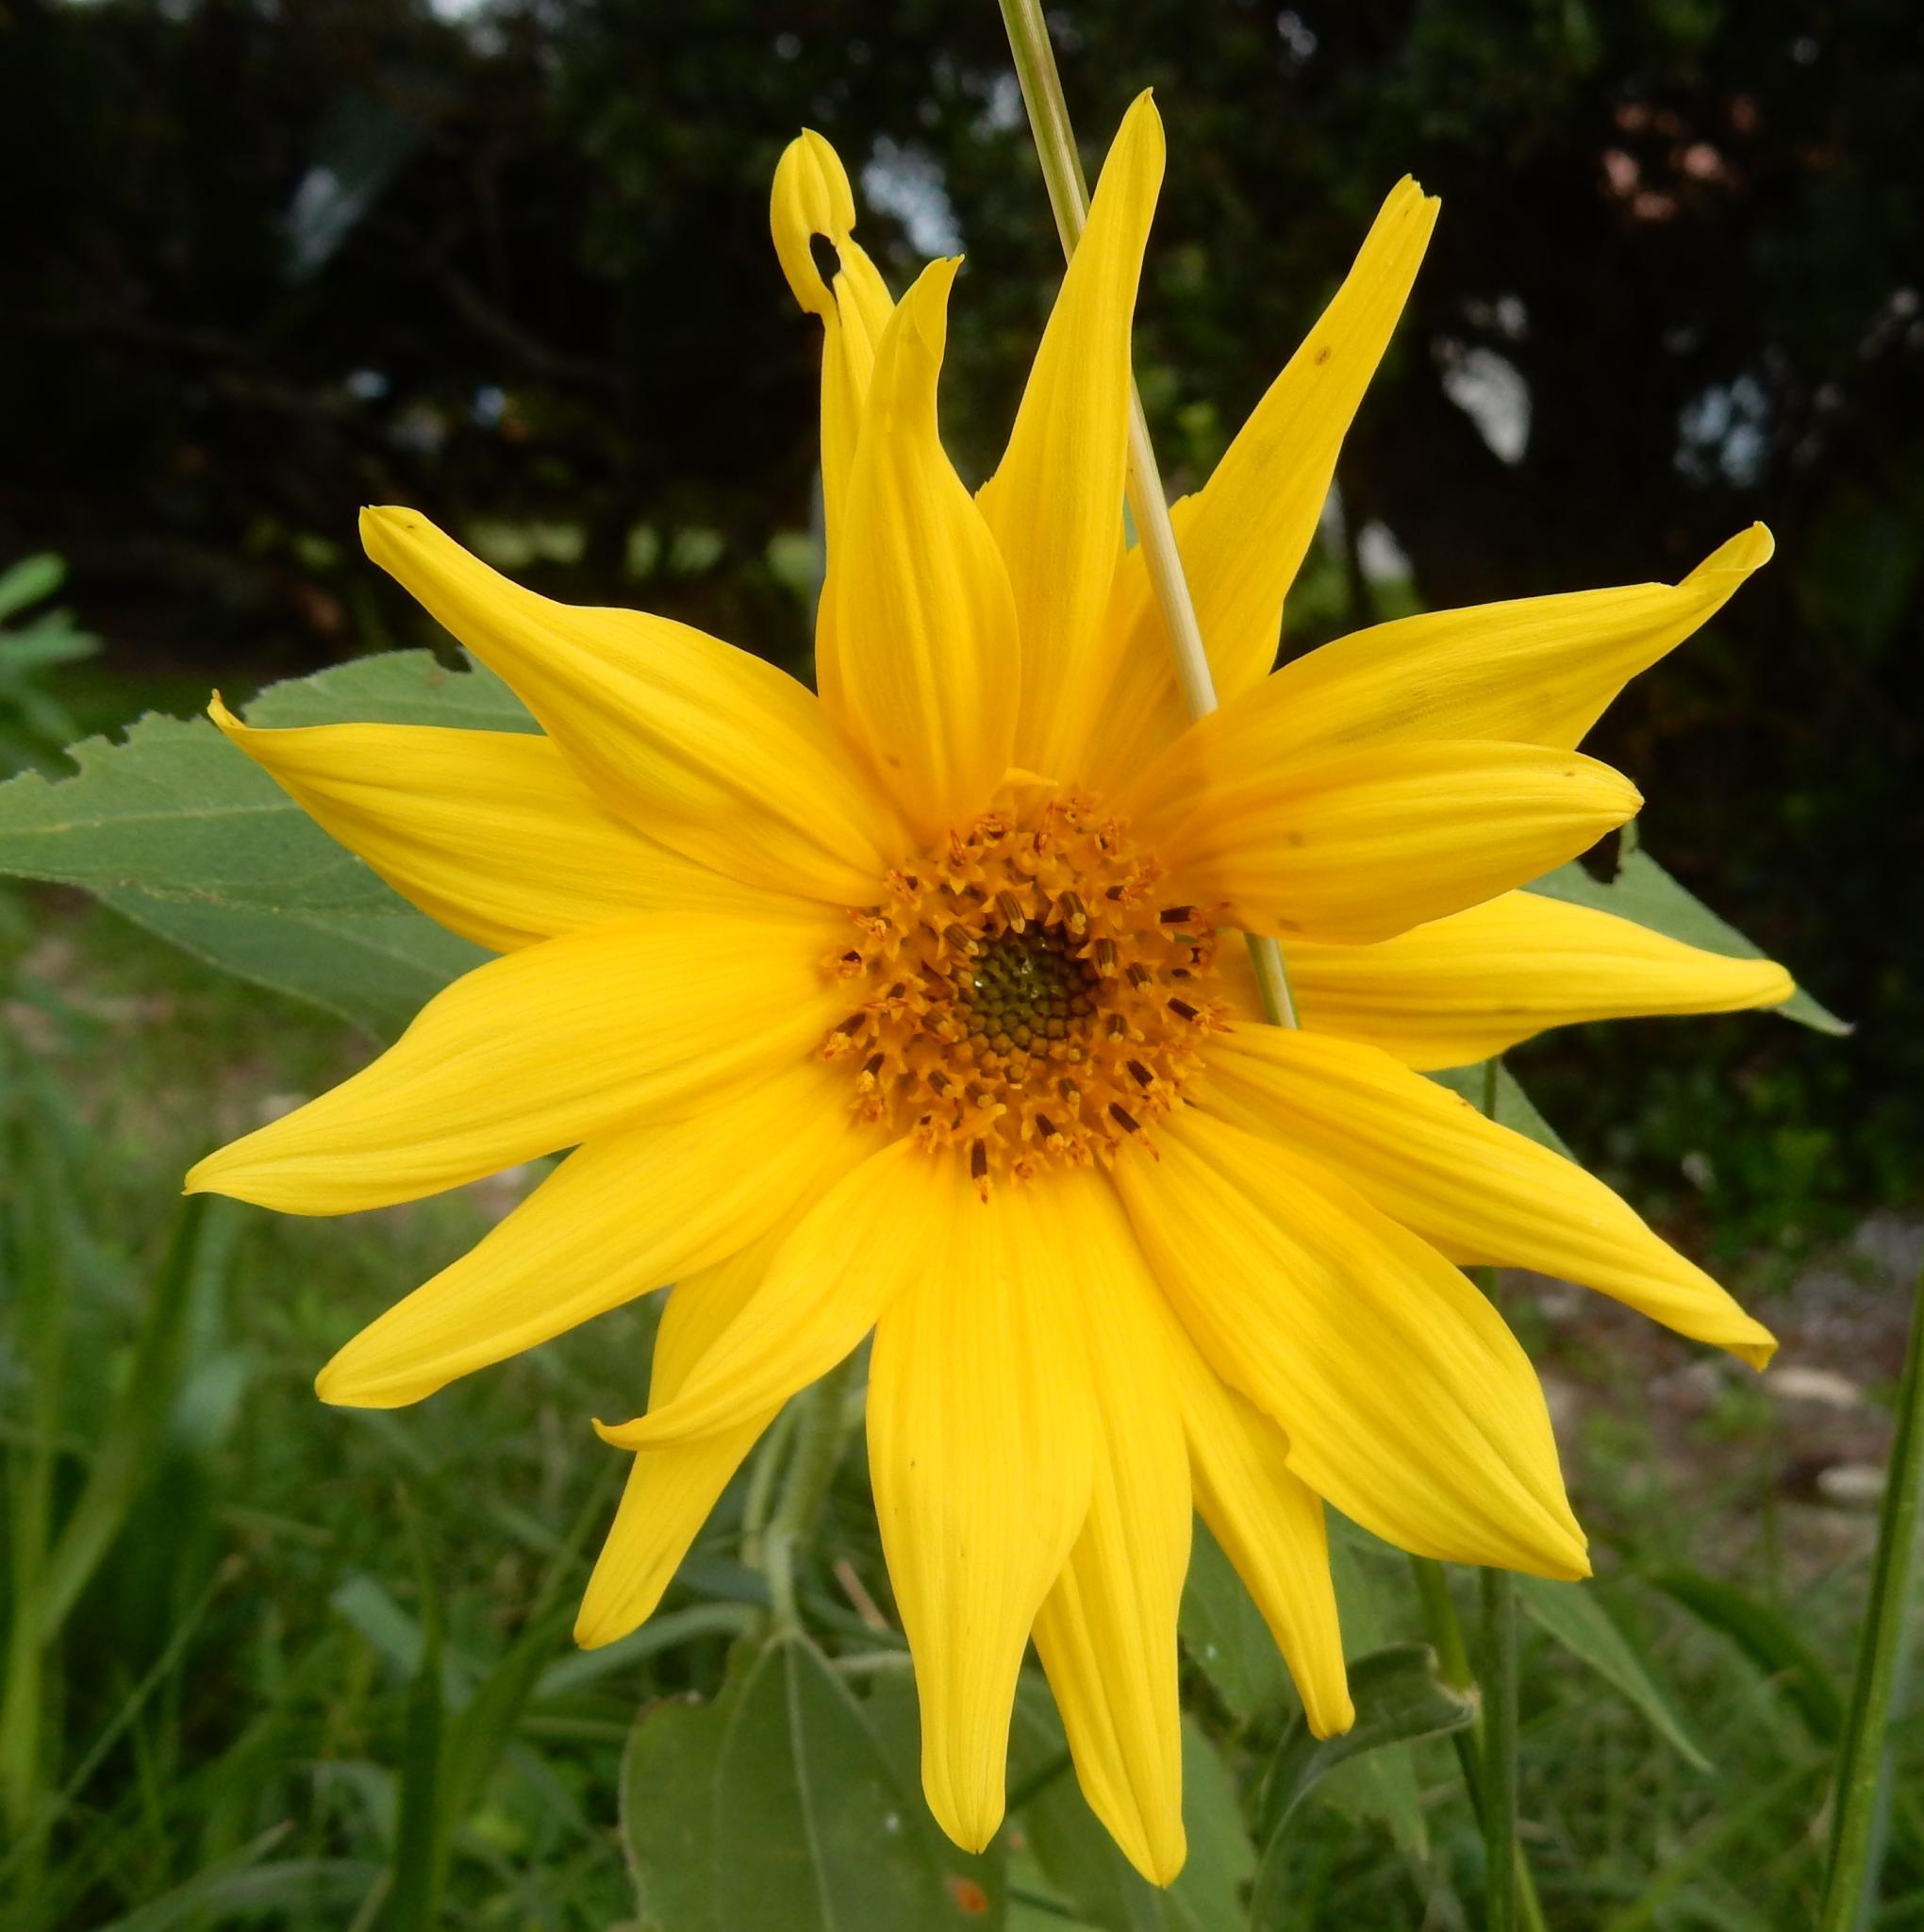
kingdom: Plantae
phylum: Tracheophyta
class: Magnoliopsida
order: Asterales
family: Asteraceae
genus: Helianthus
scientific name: Helianthus annuus
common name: Sunflower
